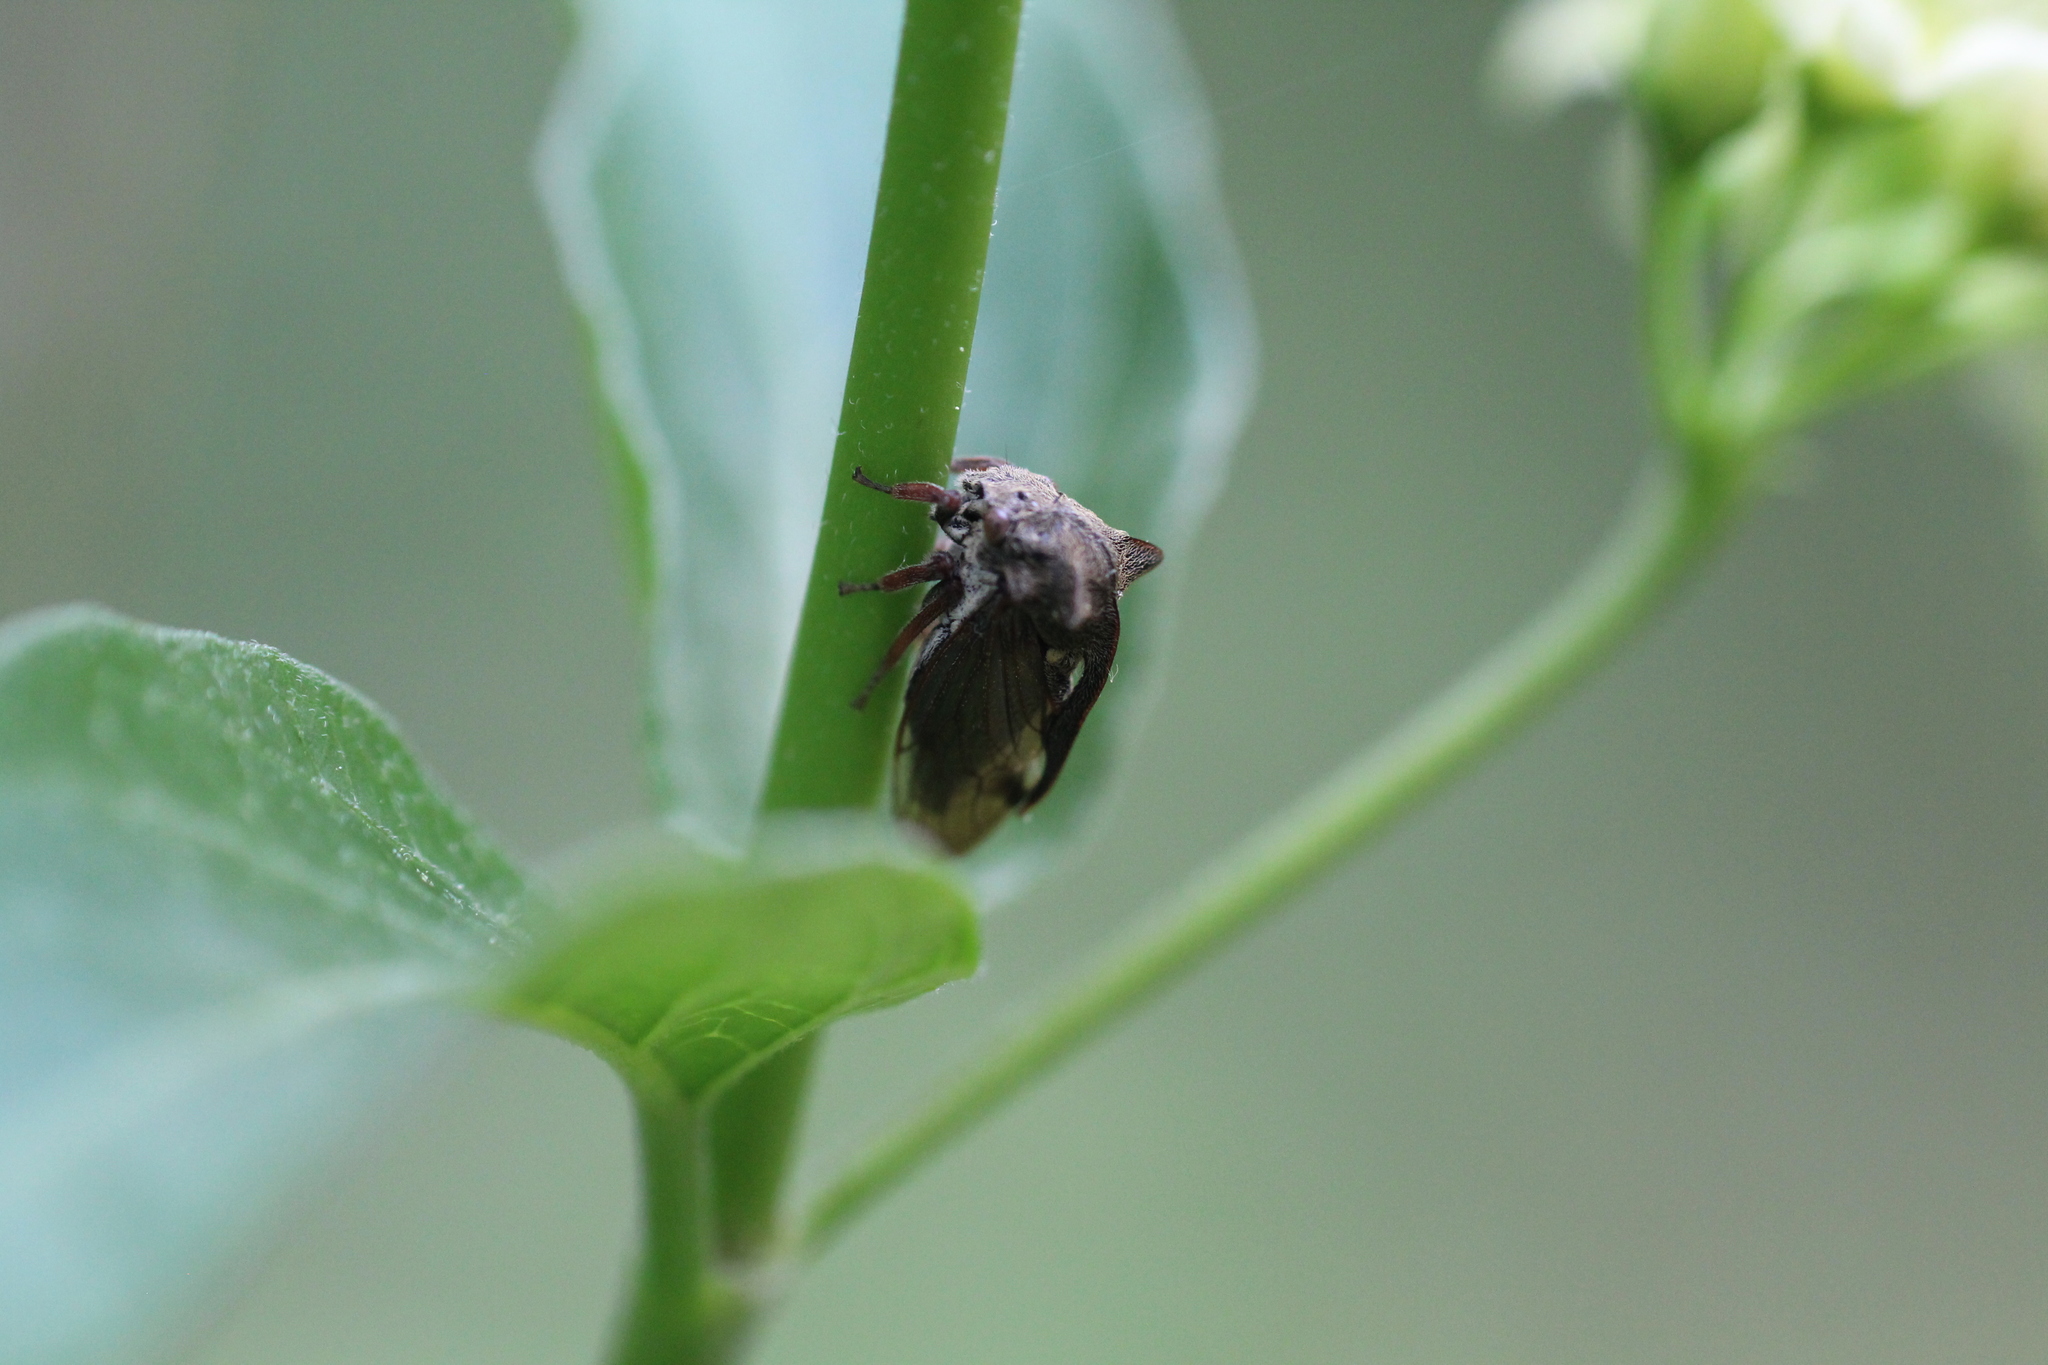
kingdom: Animalia
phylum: Arthropoda
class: Insecta
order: Hemiptera
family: Membracidae
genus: Centrotus
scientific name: Centrotus cornuta
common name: Treehopper
